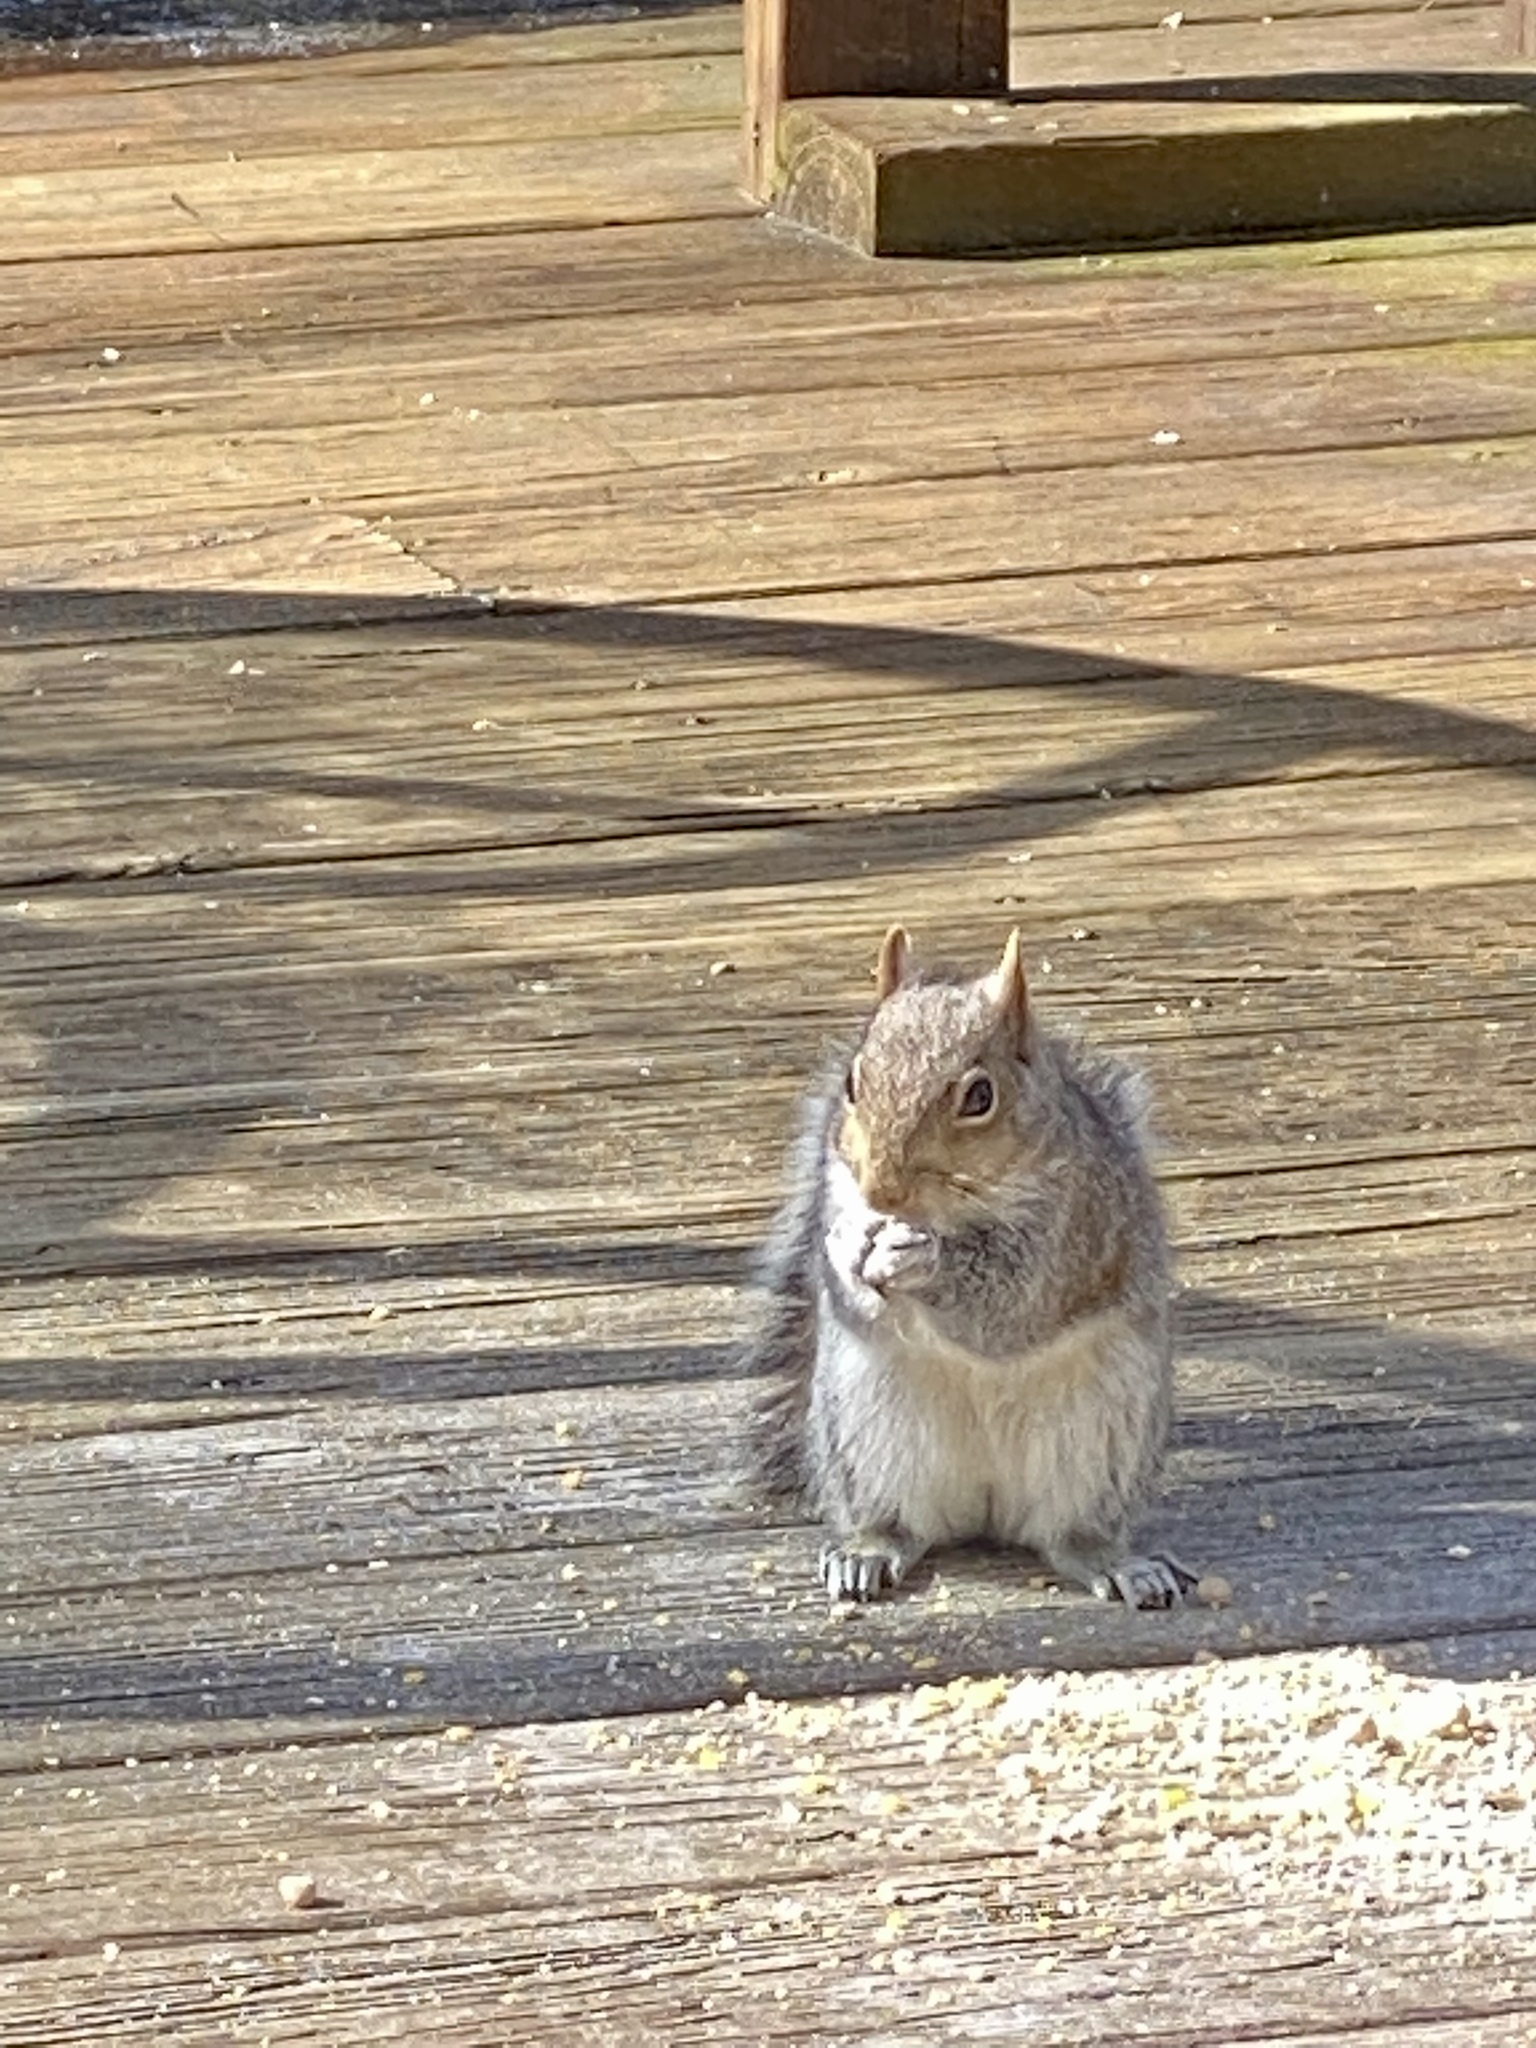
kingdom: Animalia
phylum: Chordata
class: Mammalia
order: Rodentia
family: Sciuridae
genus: Sciurus
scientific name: Sciurus carolinensis
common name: Eastern gray squirrel
